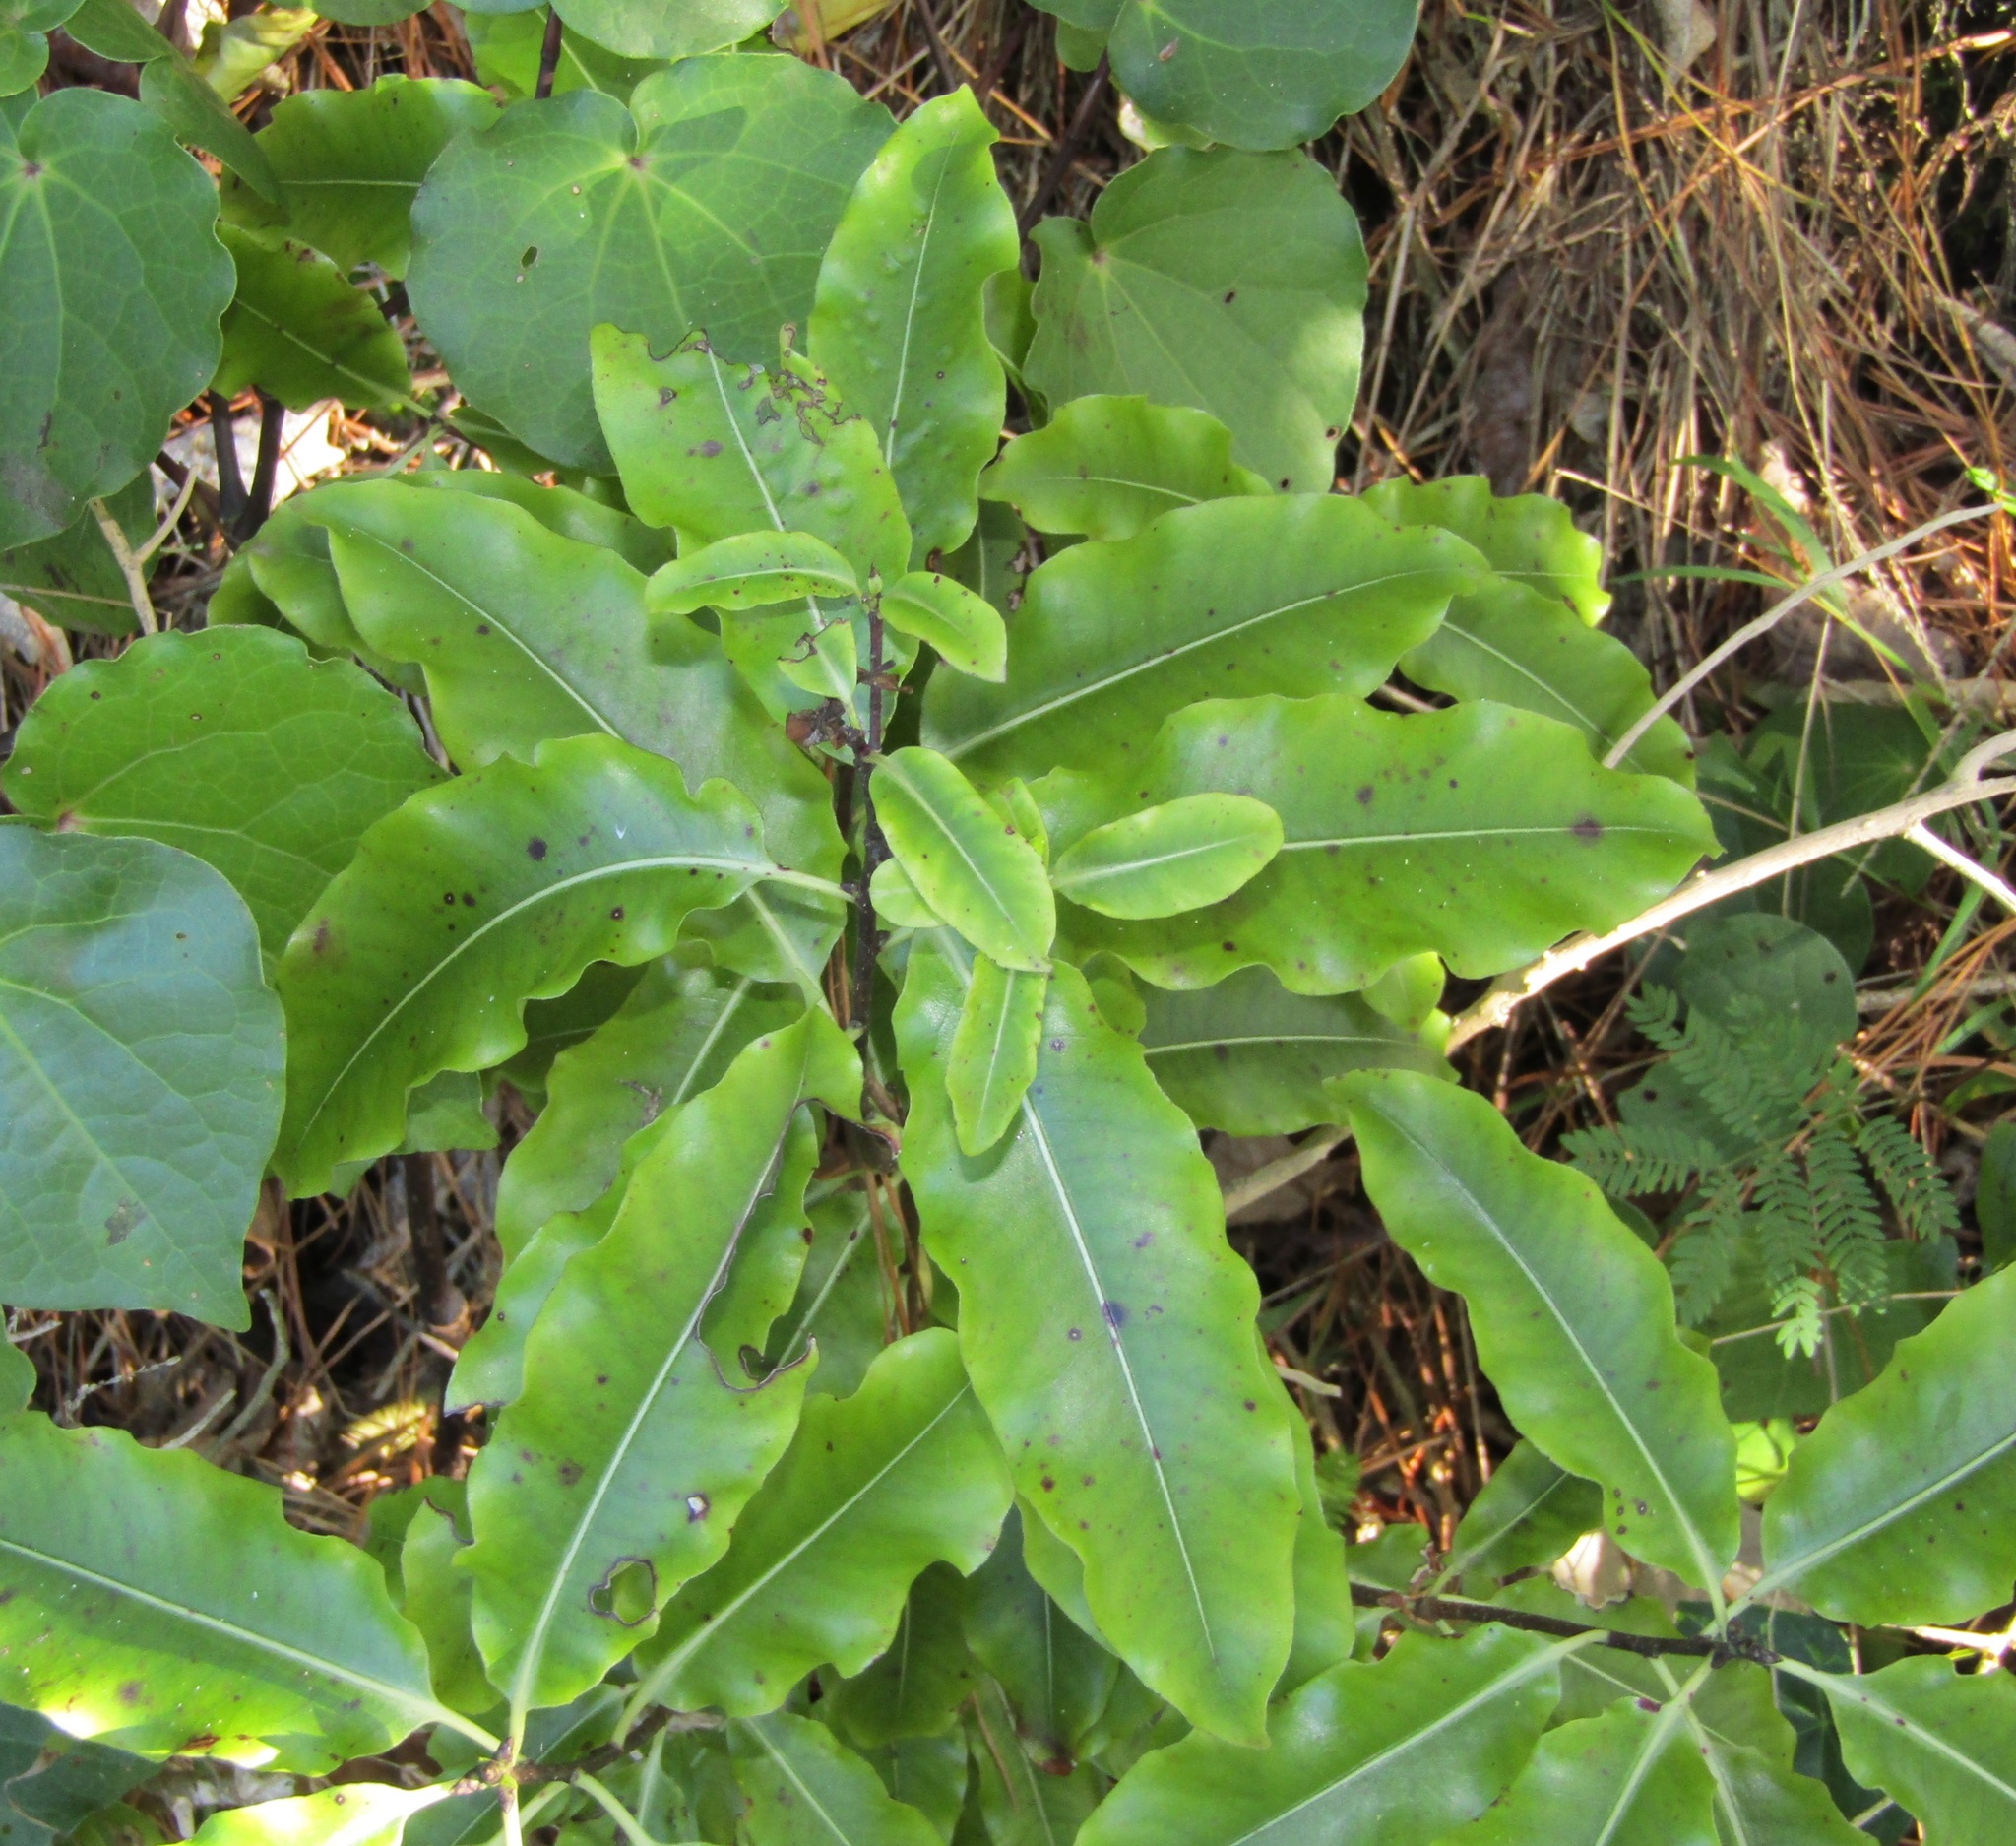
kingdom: Plantae
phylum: Tracheophyta
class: Magnoliopsida
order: Apiales
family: Pittosporaceae
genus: Pittosporum
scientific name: Pittosporum eugenioides
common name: Lemonwood
